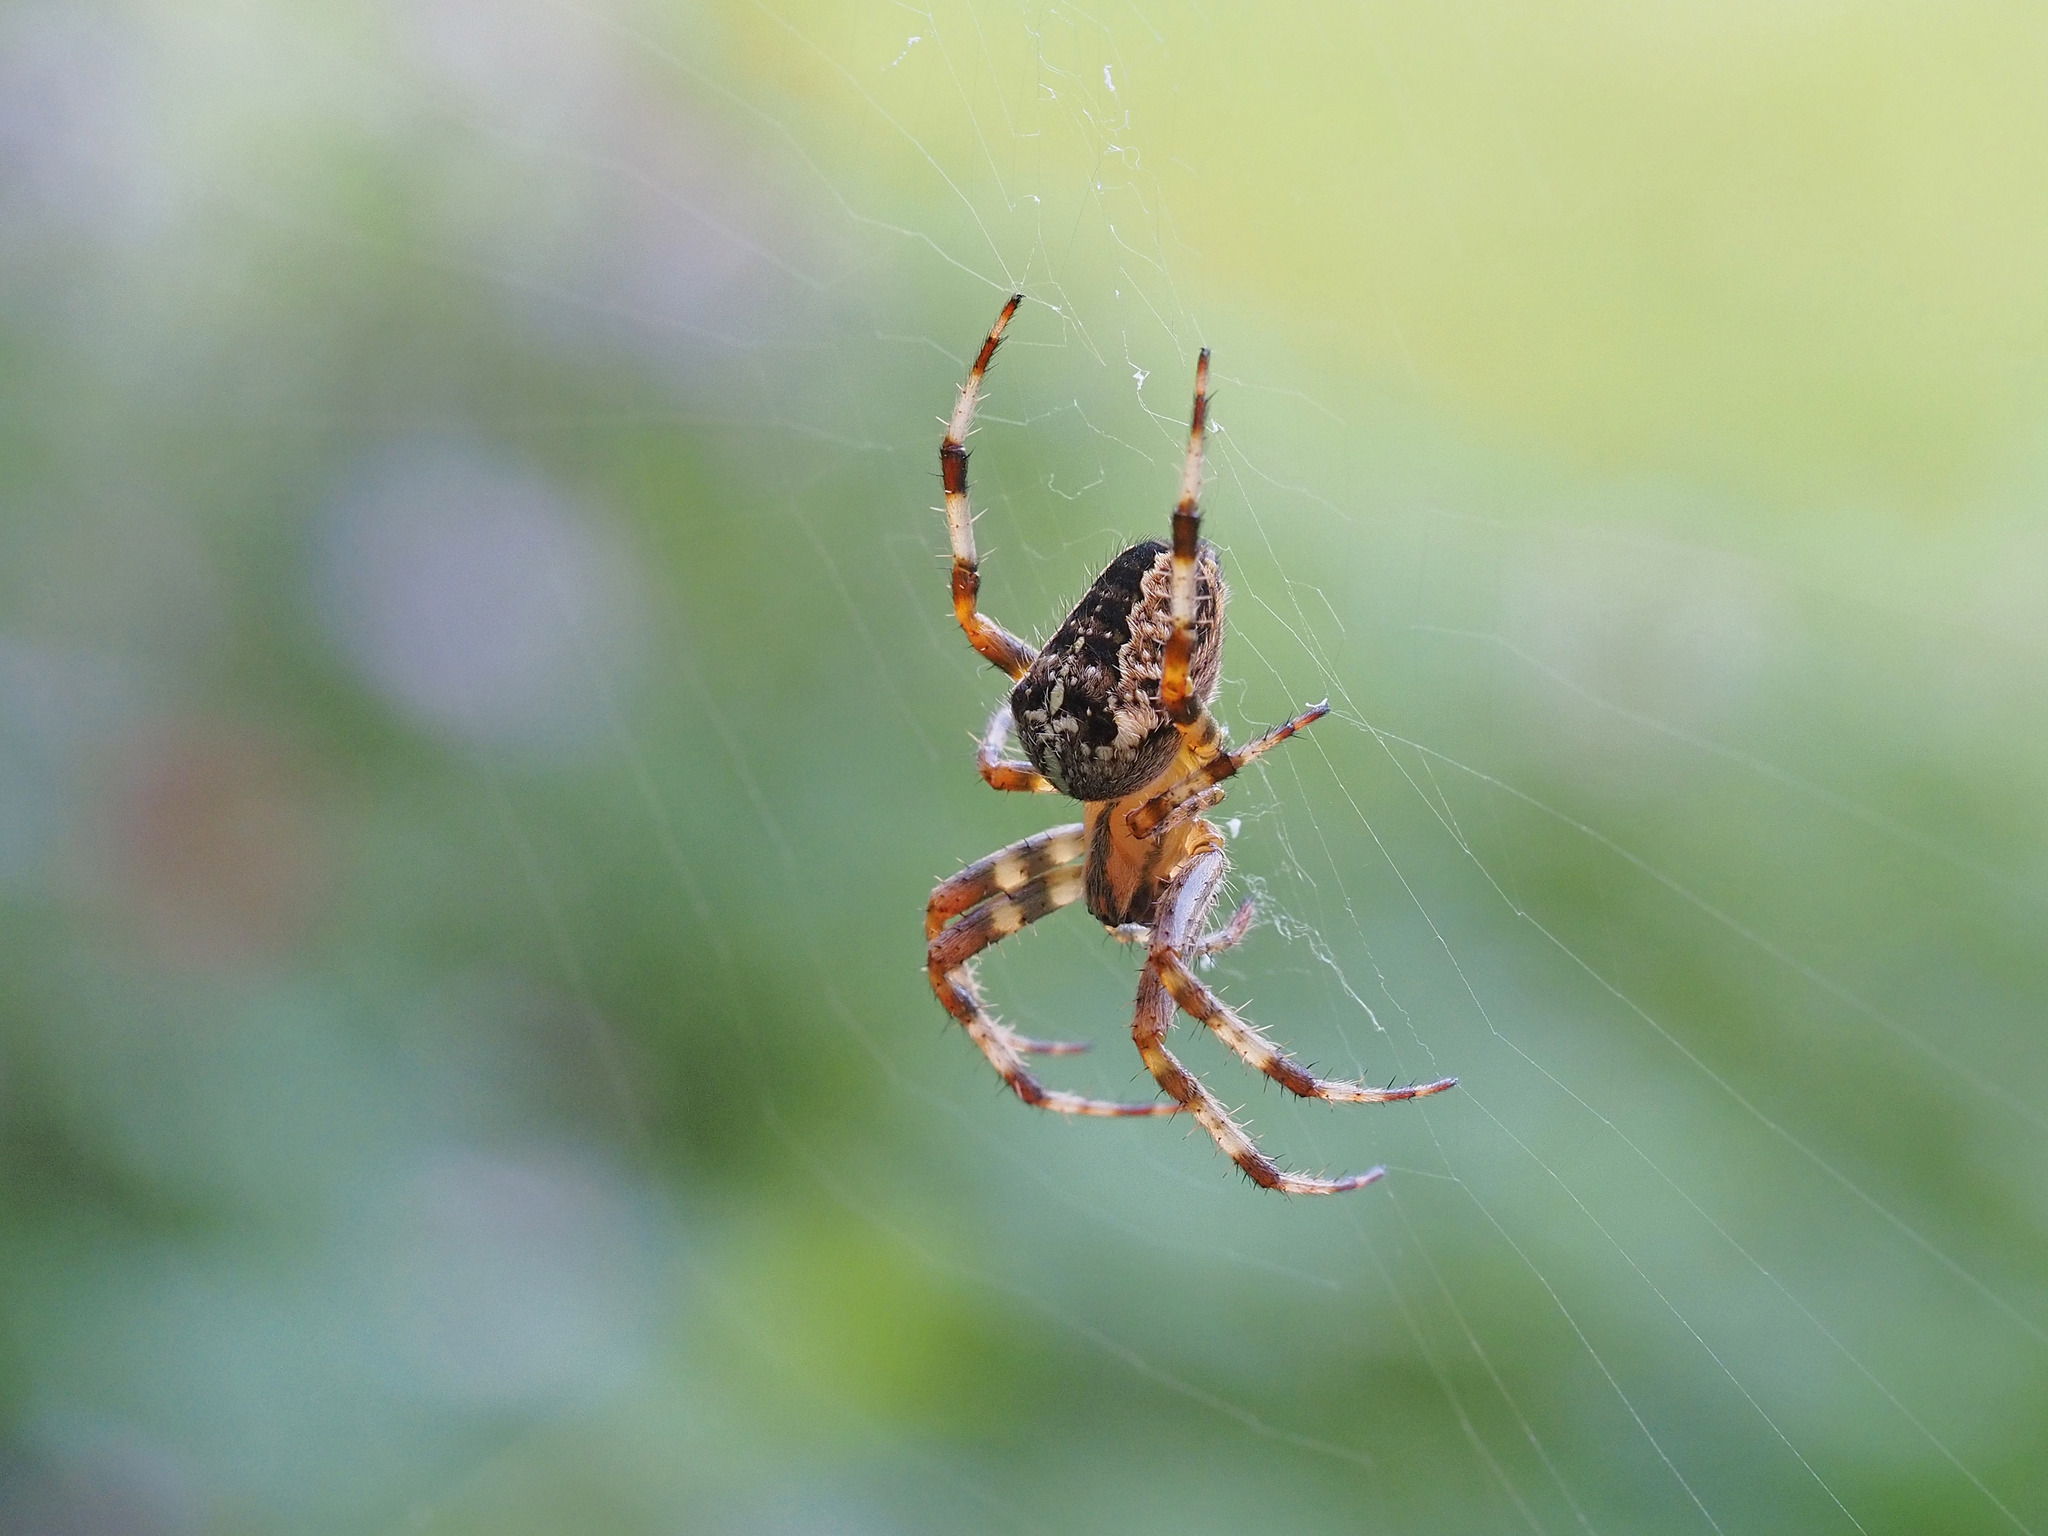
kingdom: Animalia
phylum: Arthropoda
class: Arachnida
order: Araneae
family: Araneidae
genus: Araneus
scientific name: Araneus diadematus
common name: Cross orbweaver
